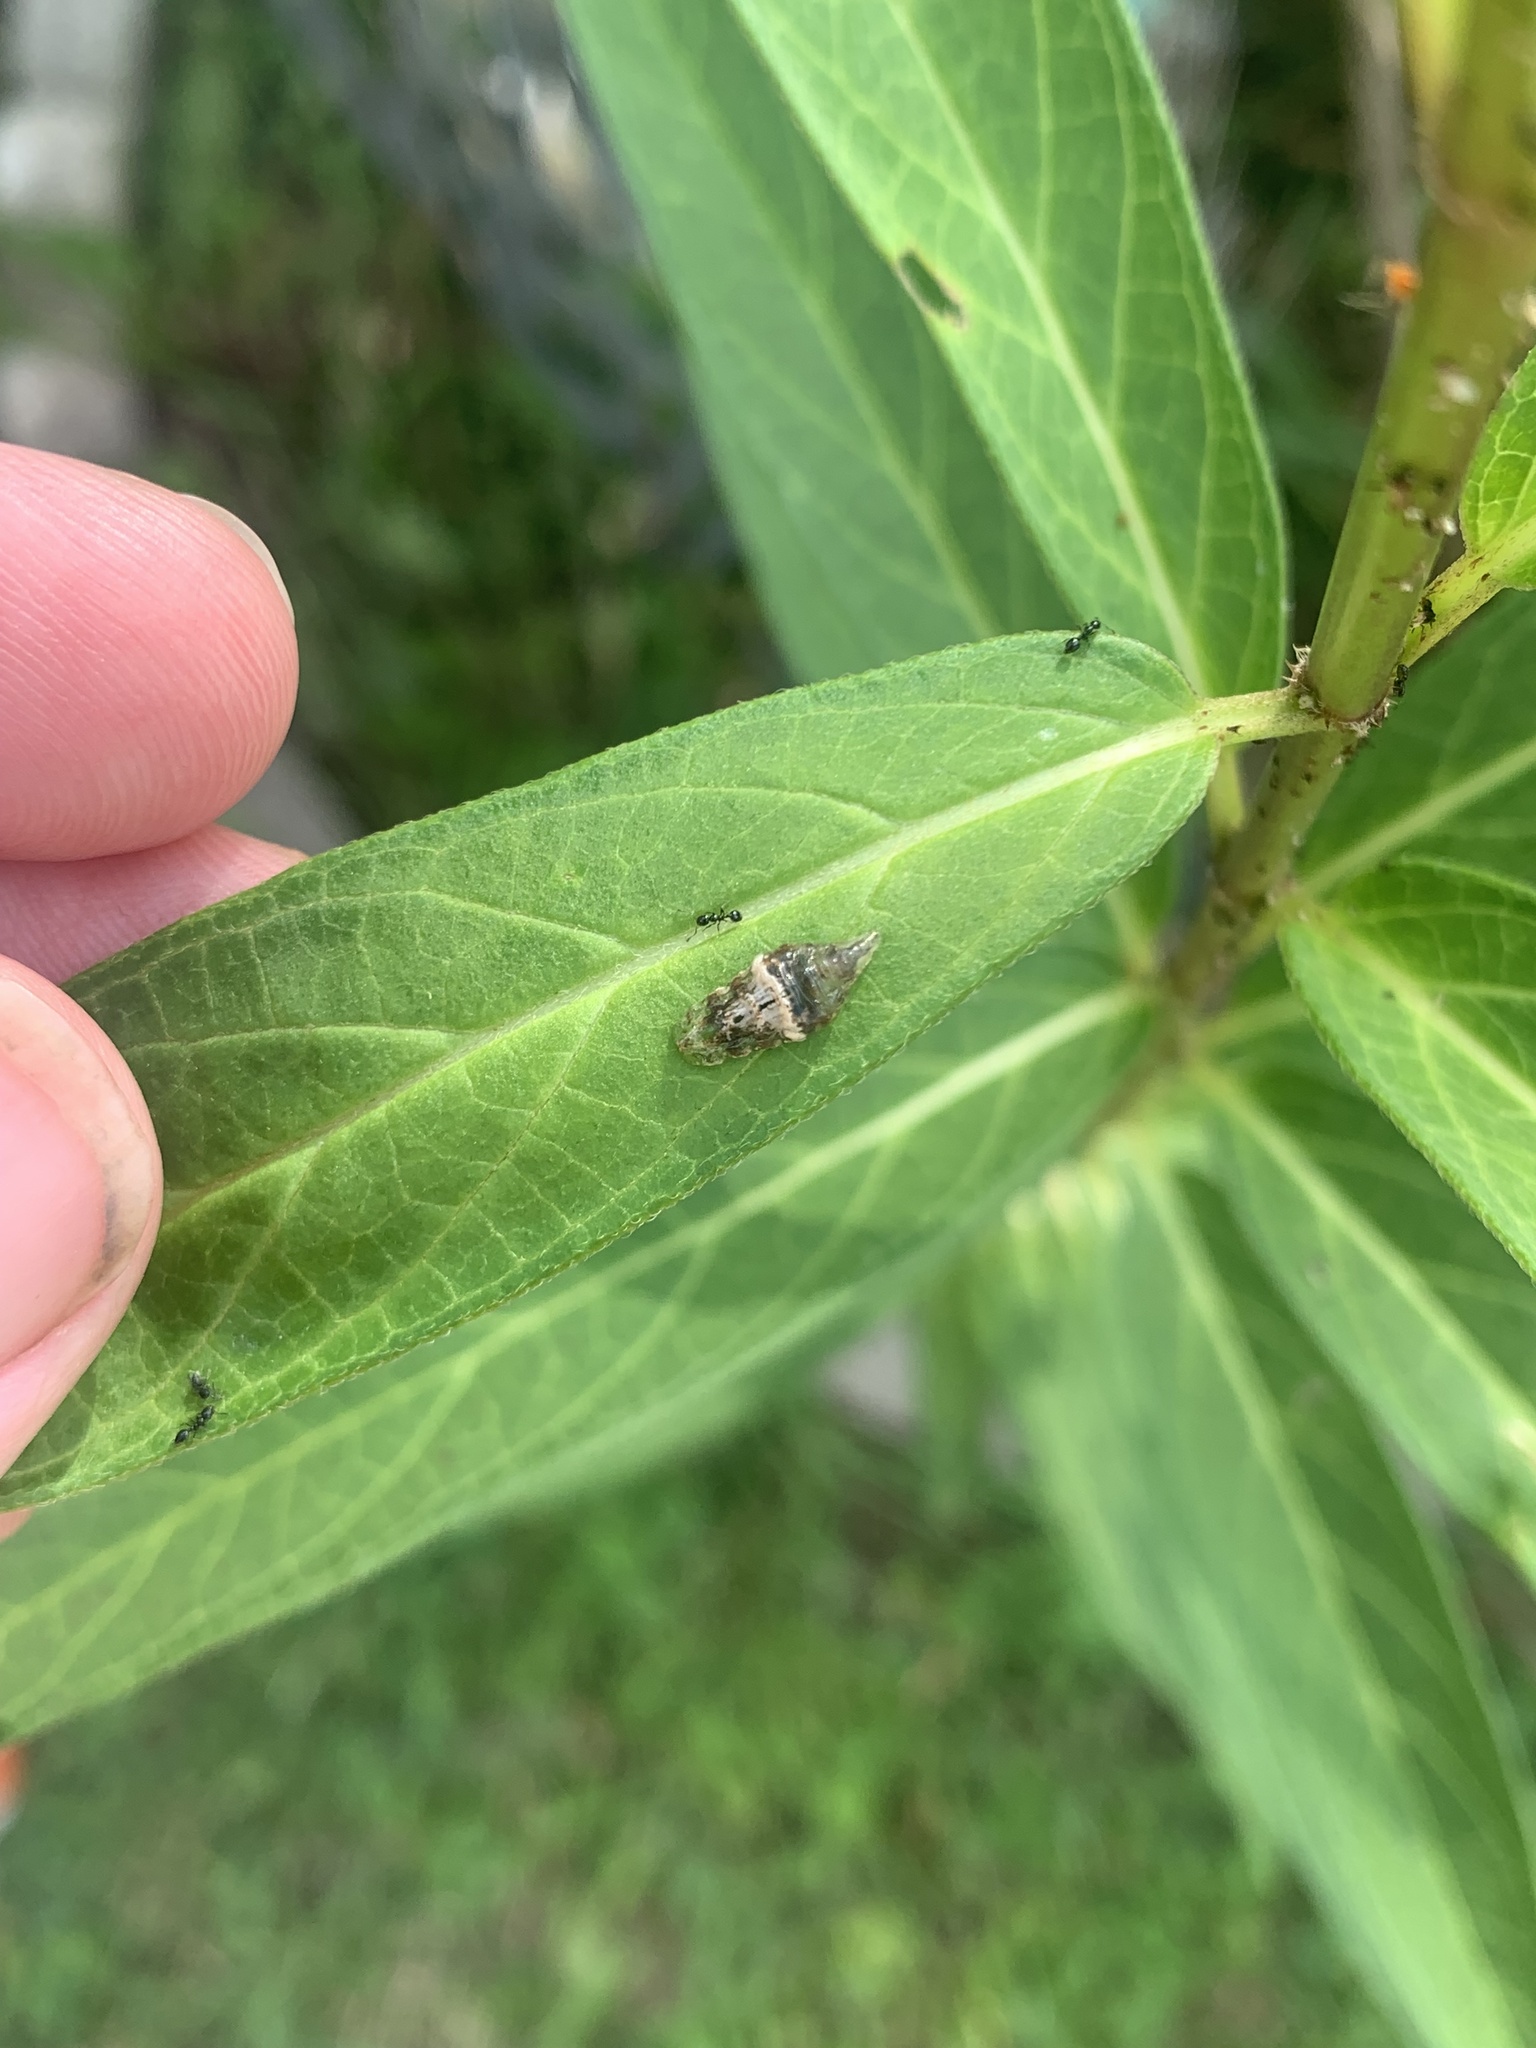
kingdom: Animalia
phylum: Arthropoda
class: Insecta
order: Diptera
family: Syrphidae
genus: Ocyptamus
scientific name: Ocyptamus fuscipennis
